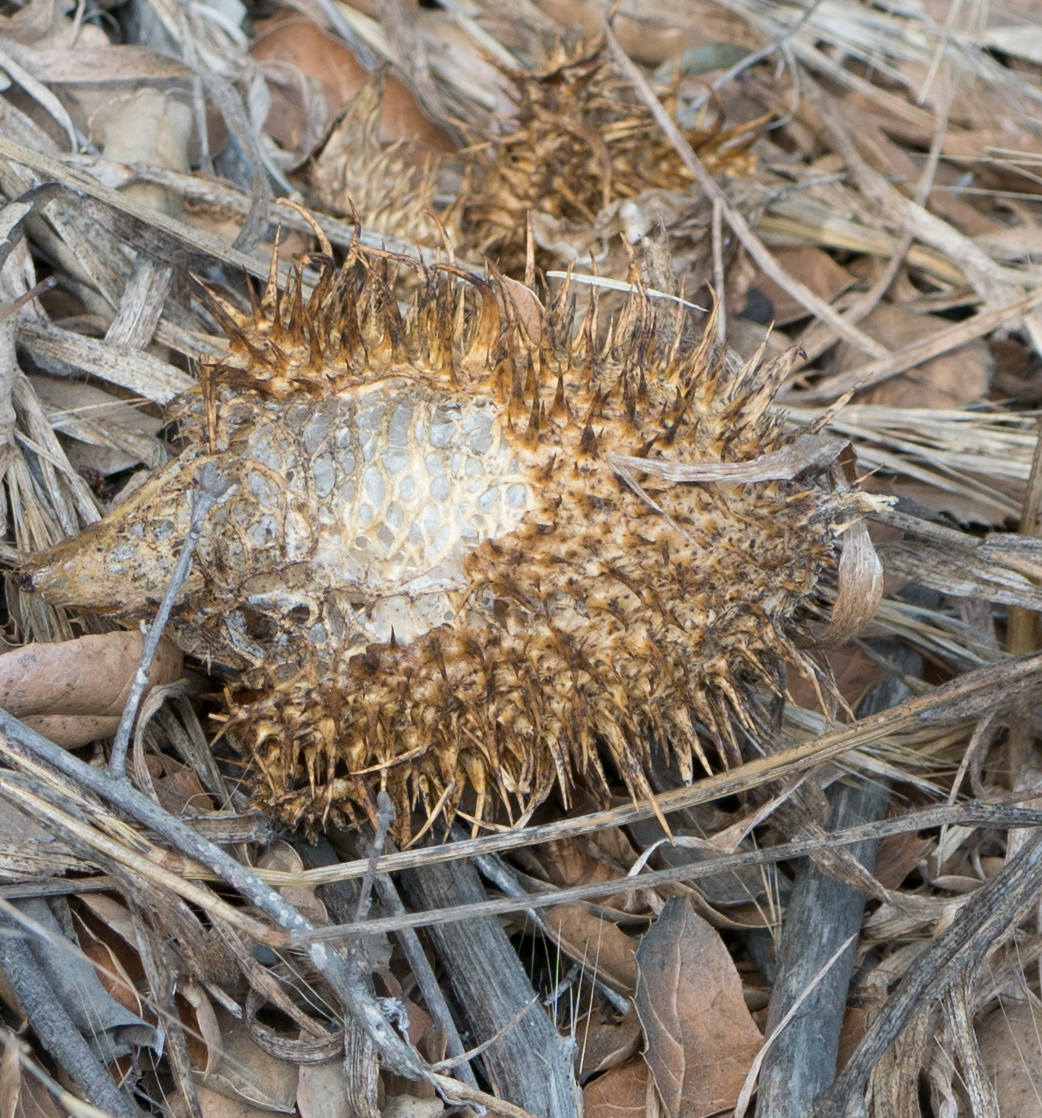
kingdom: Plantae
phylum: Tracheophyta
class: Magnoliopsida
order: Cucurbitales
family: Cucurbitaceae
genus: Marah
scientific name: Marah macrocarpa
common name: Cucamonga manroot
